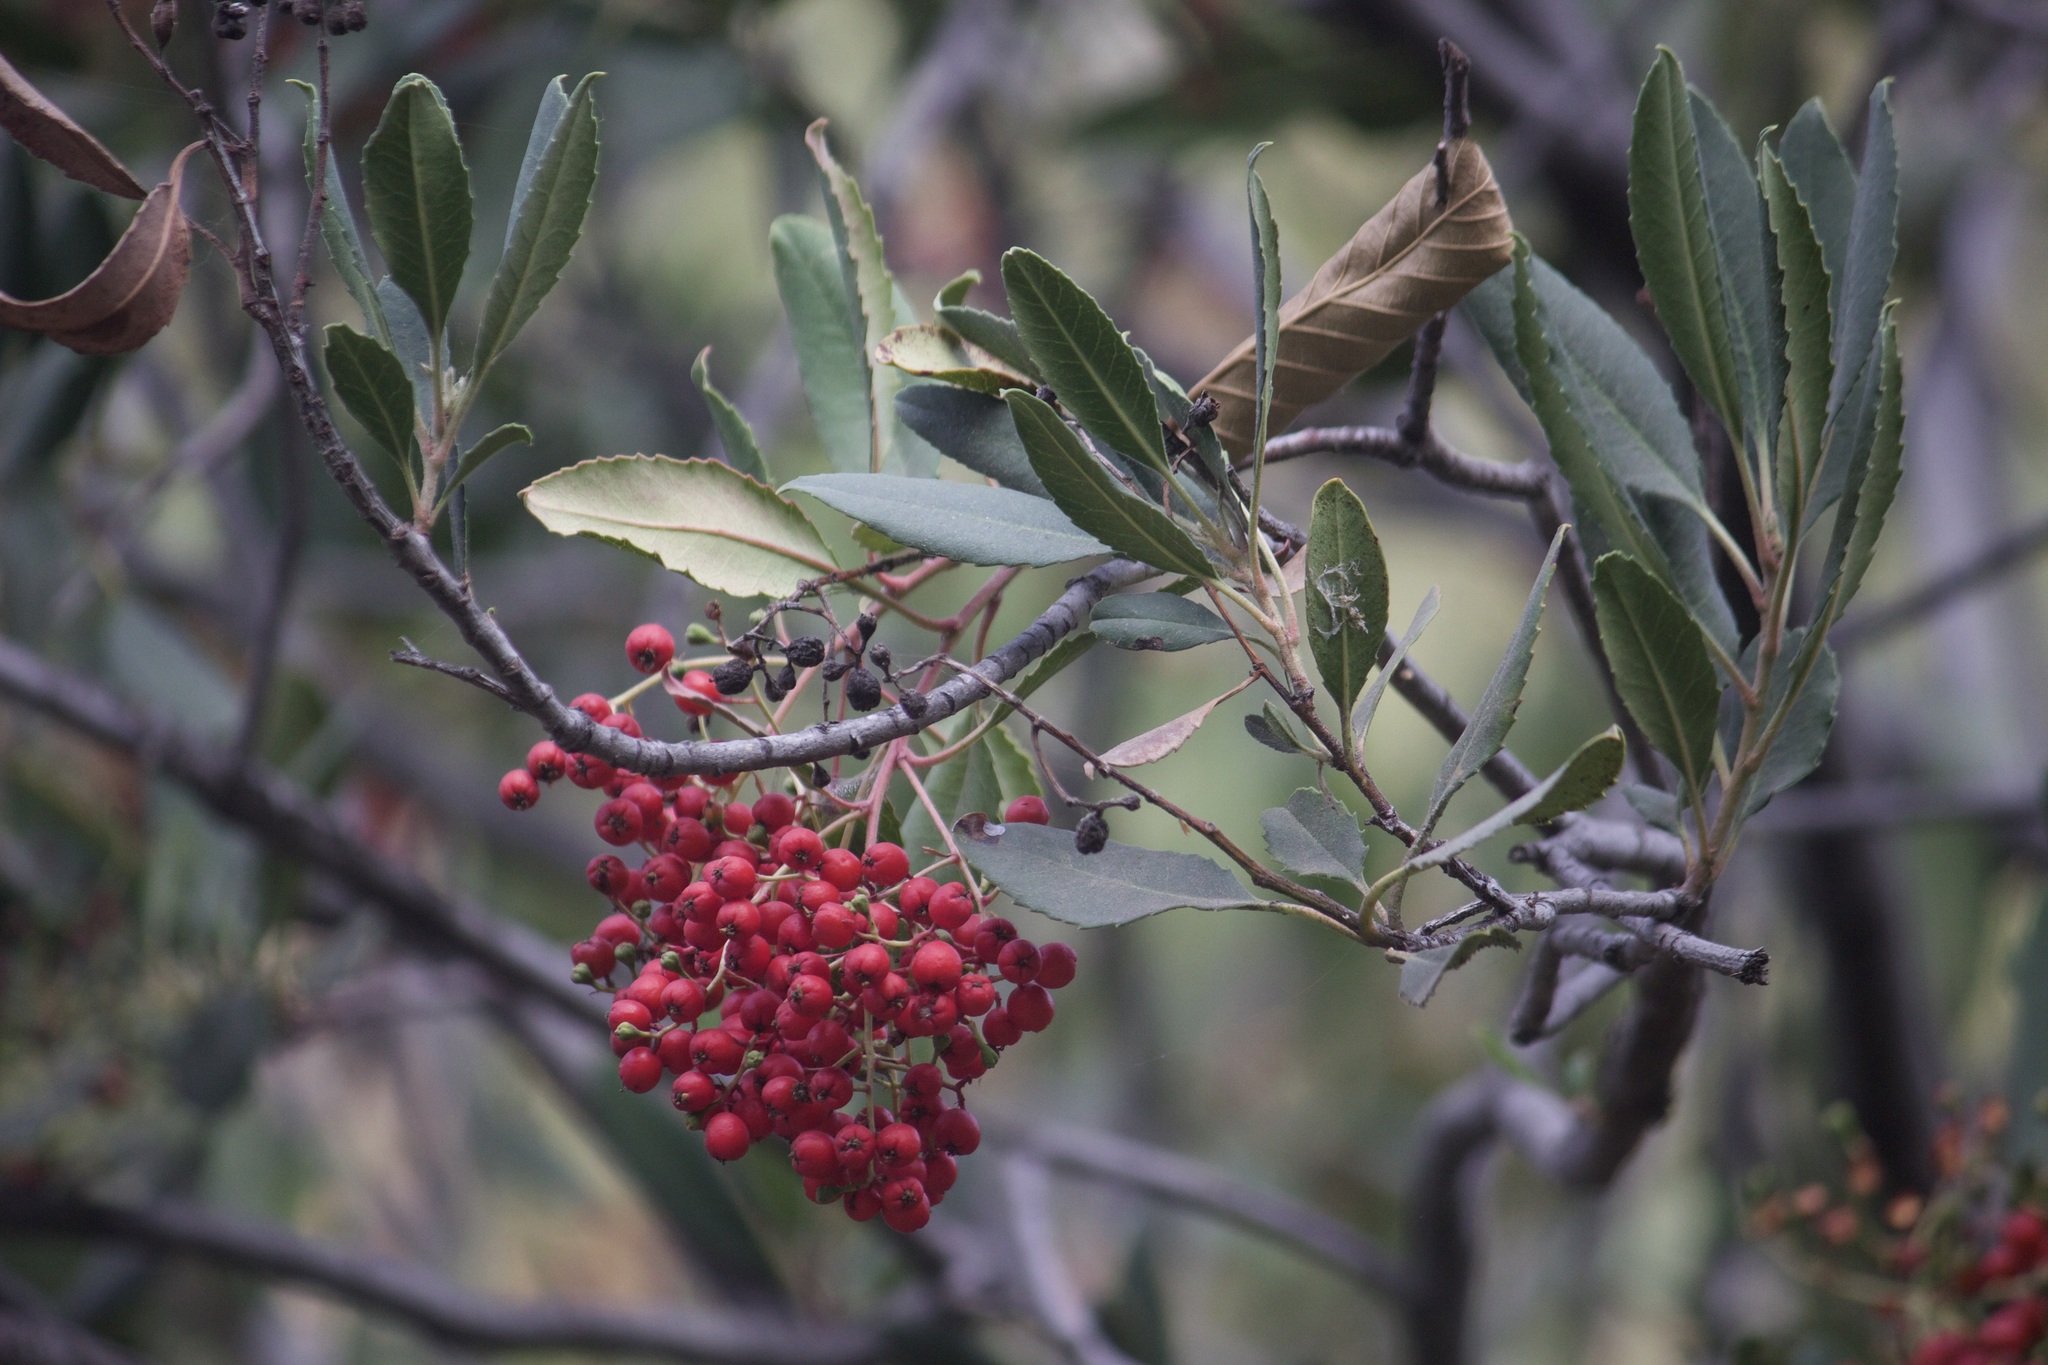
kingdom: Plantae
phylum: Tracheophyta
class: Magnoliopsida
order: Rosales
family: Rosaceae
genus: Heteromeles
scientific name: Heteromeles arbutifolia
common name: California-holly
